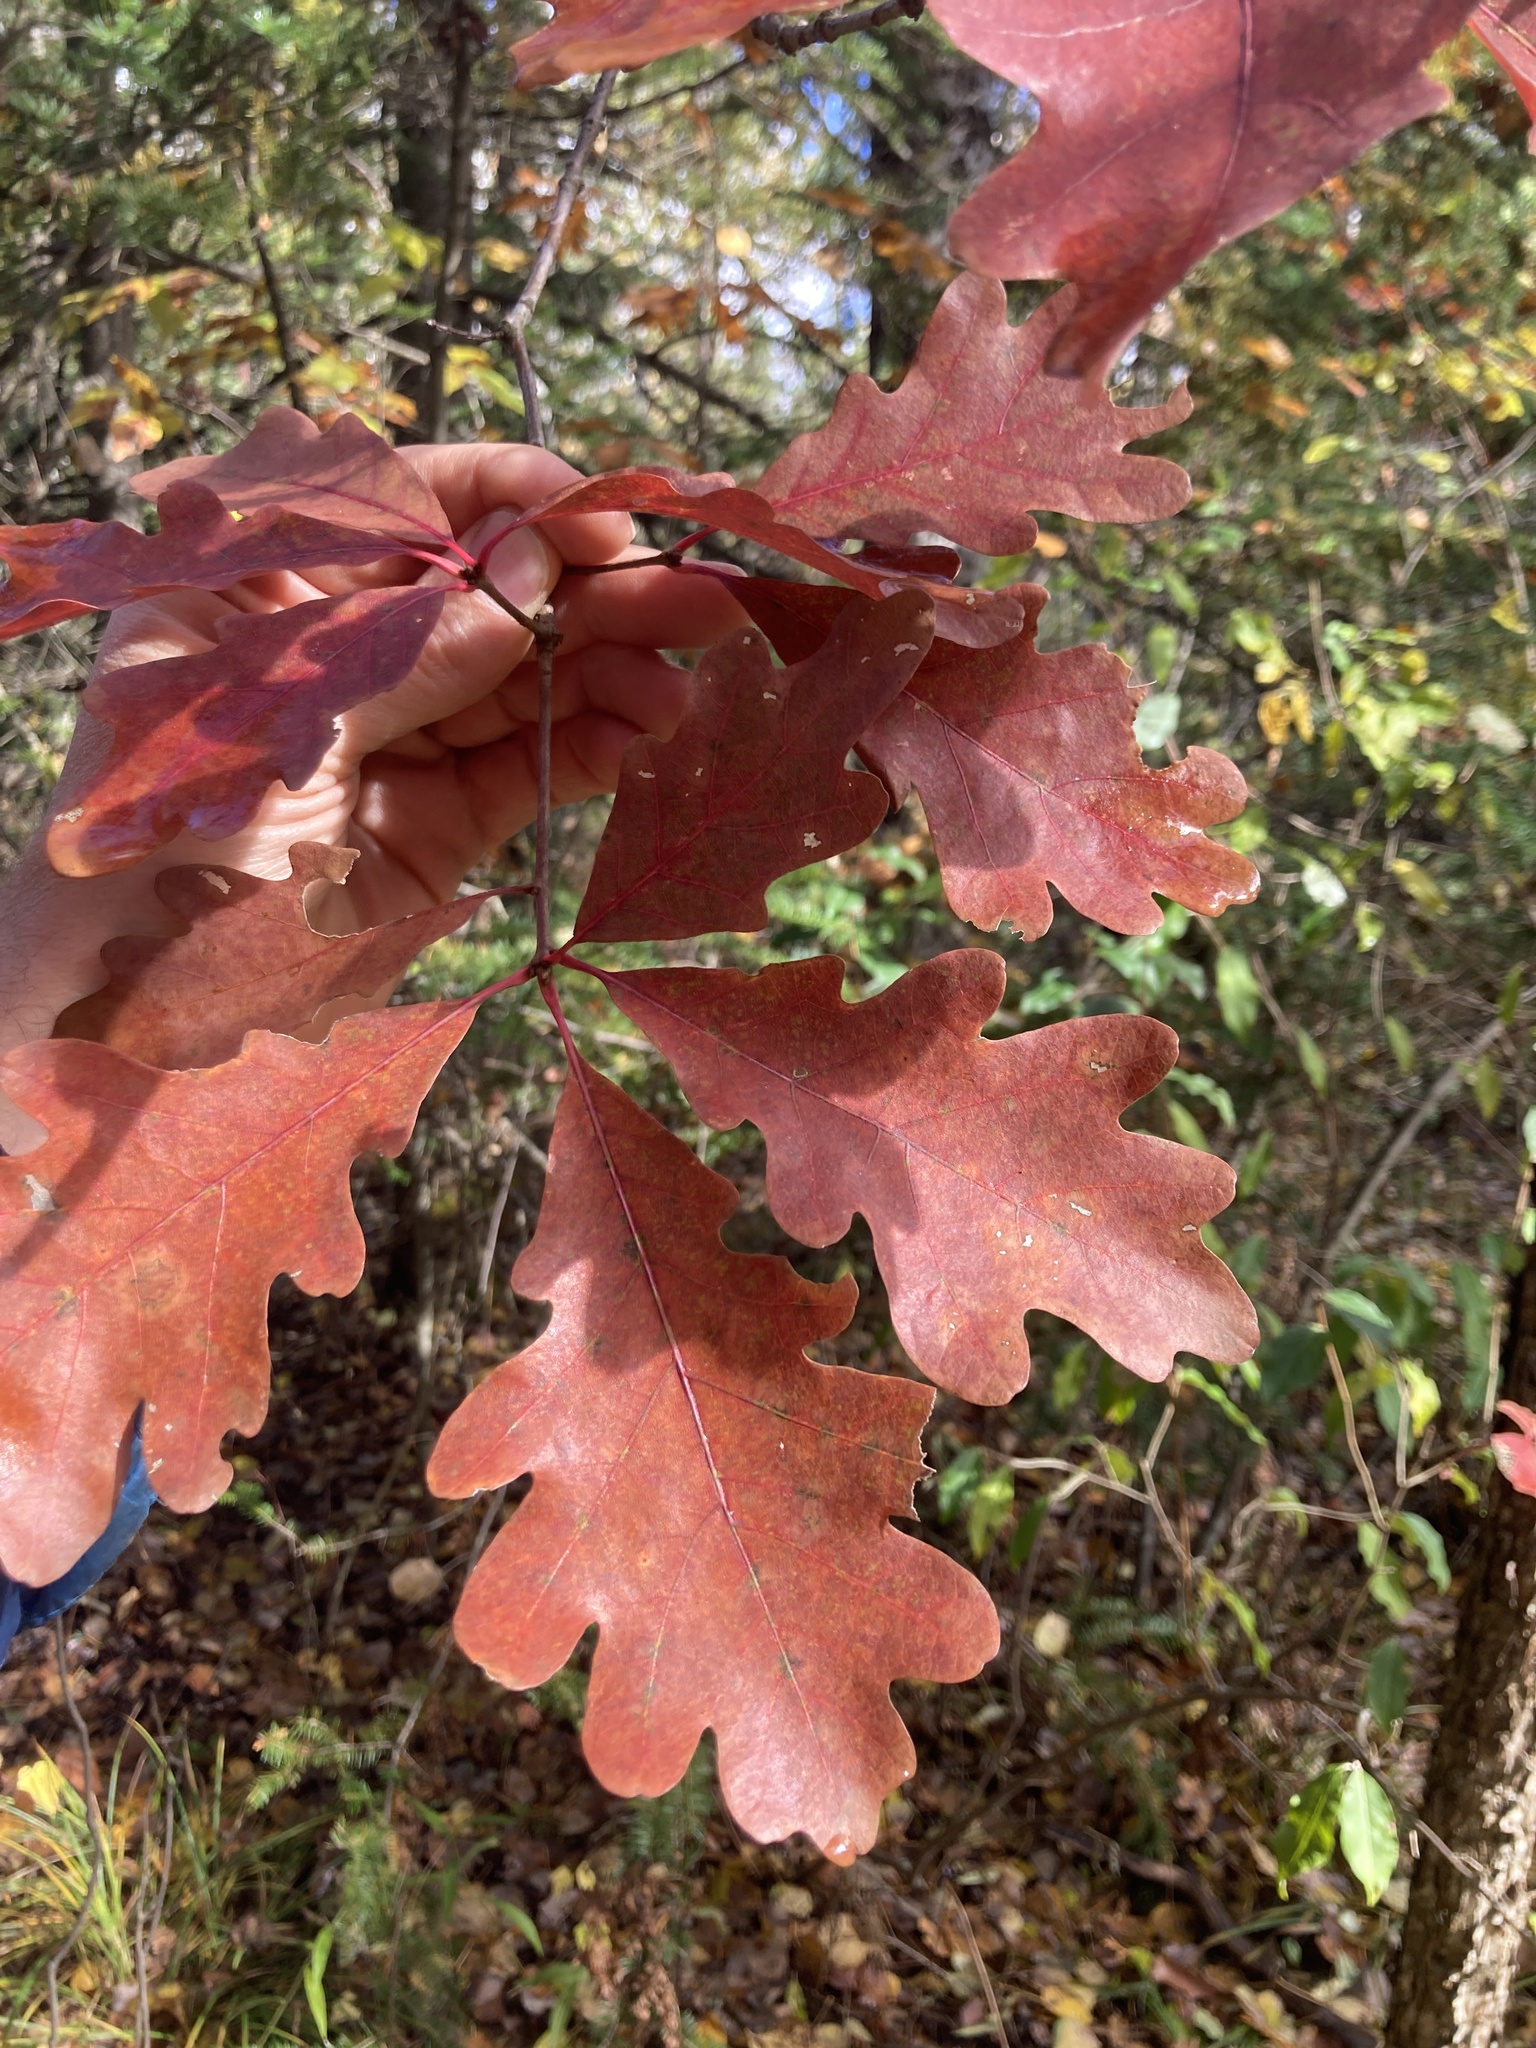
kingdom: Plantae
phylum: Tracheophyta
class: Magnoliopsida
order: Fagales
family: Fagaceae
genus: Quercus
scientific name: Quercus alba
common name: White oak
